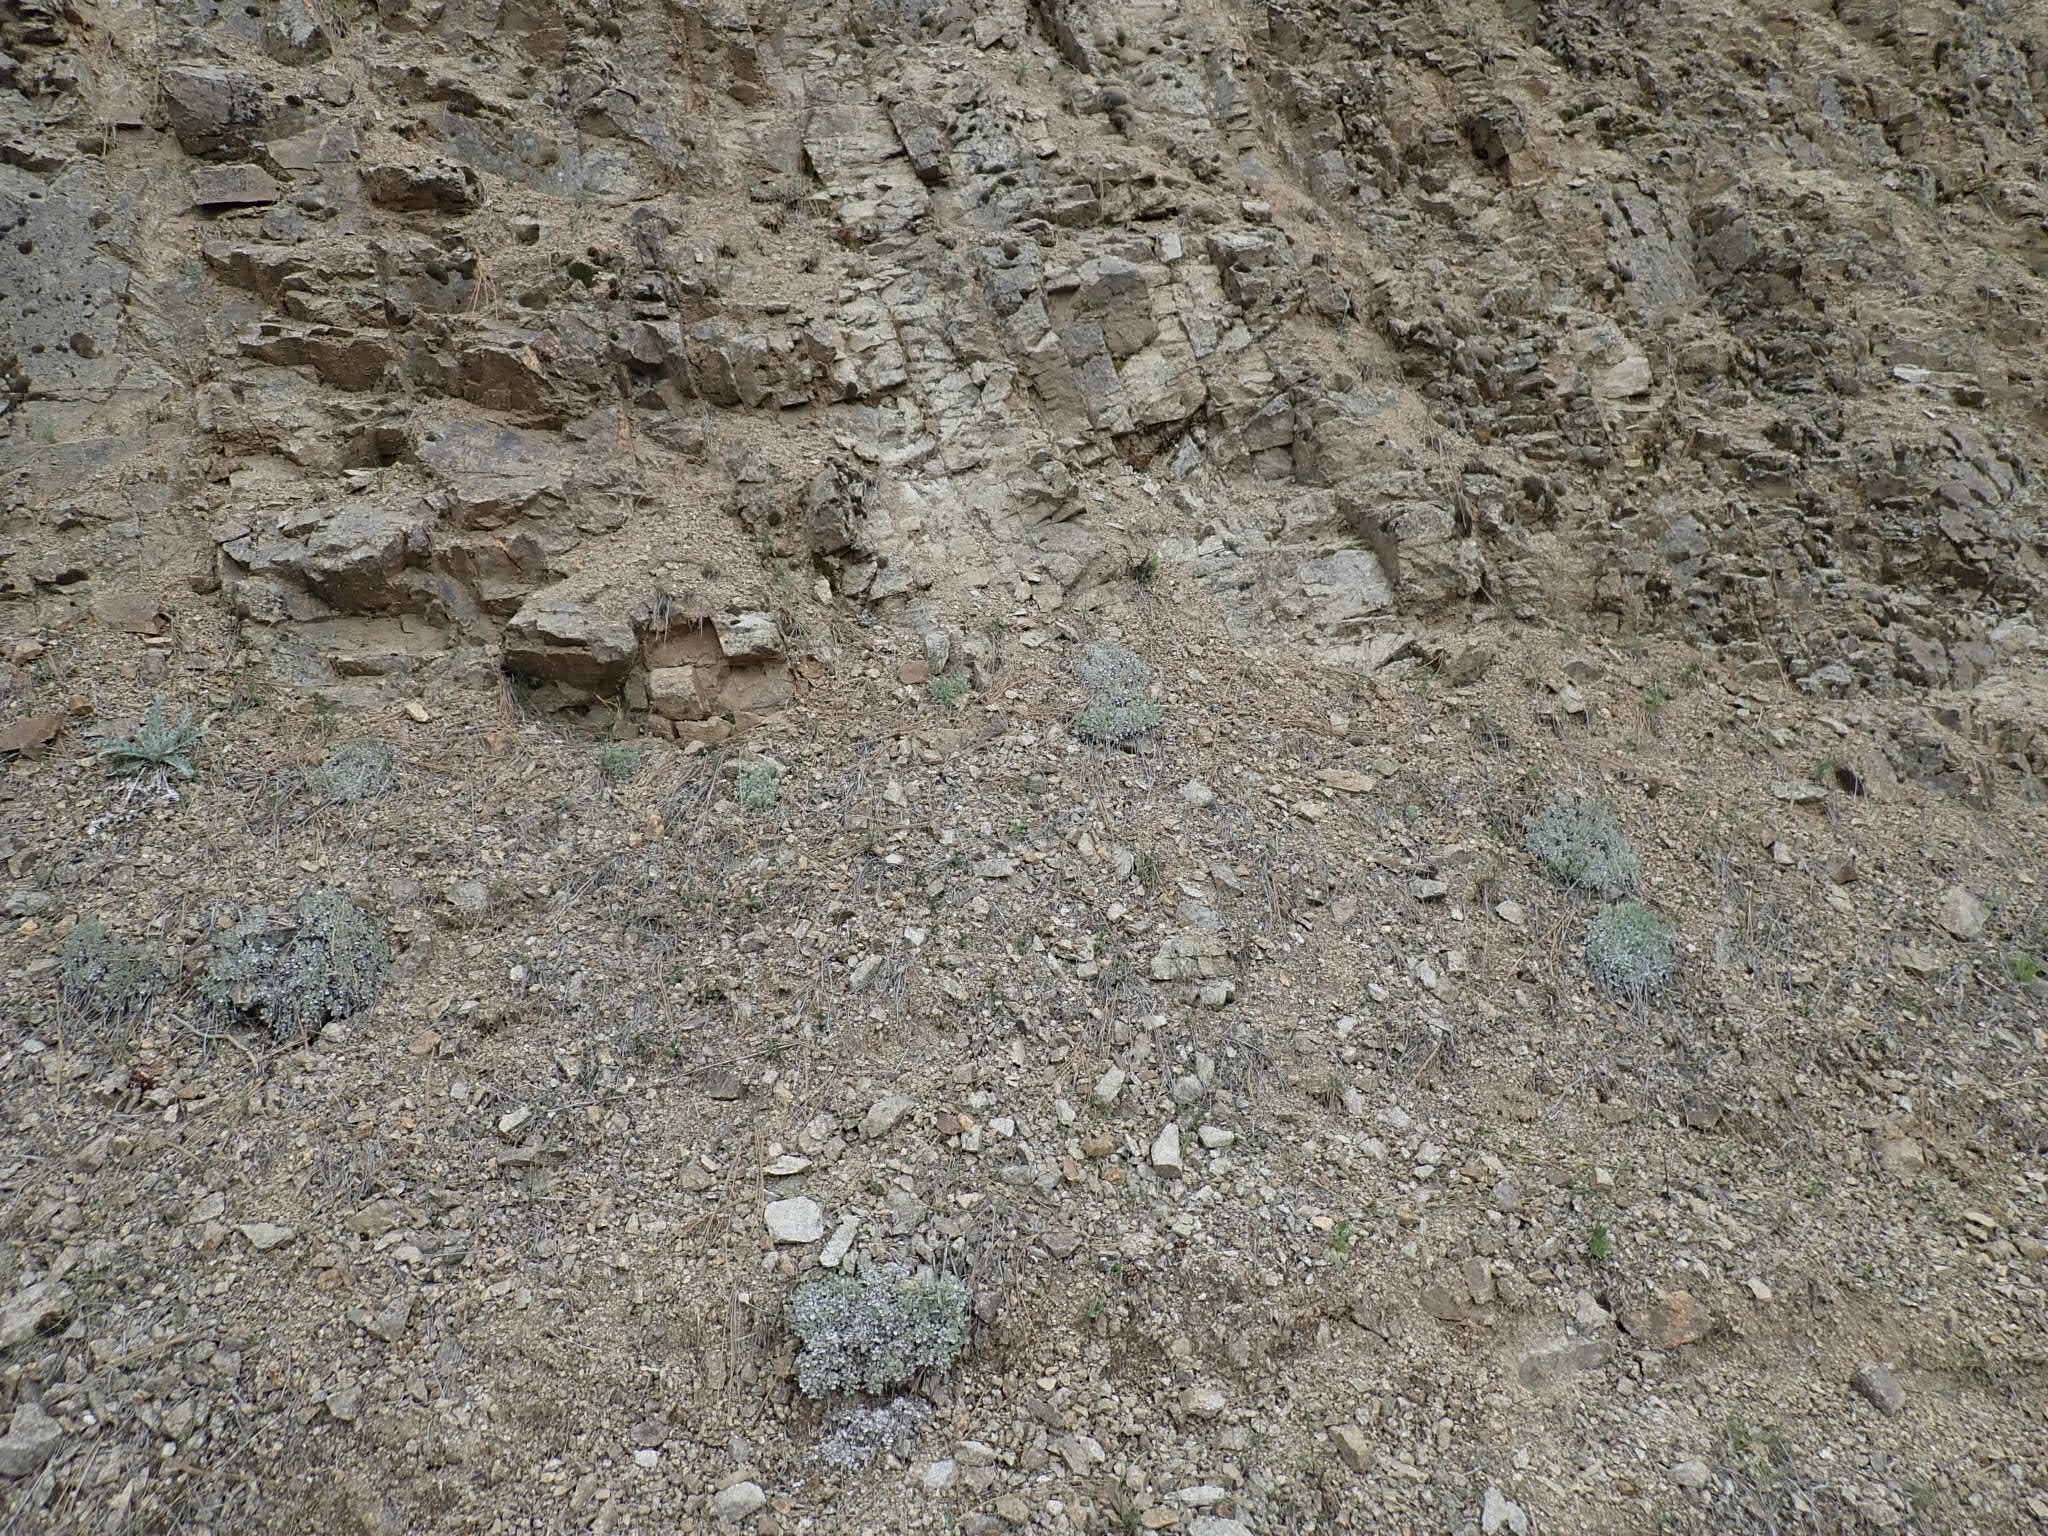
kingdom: Plantae
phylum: Tracheophyta
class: Magnoliopsida
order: Caryophyllales
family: Polygonaceae
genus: Eriogonum
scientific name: Eriogonum ovalifolium
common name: Cushion buckwheat
